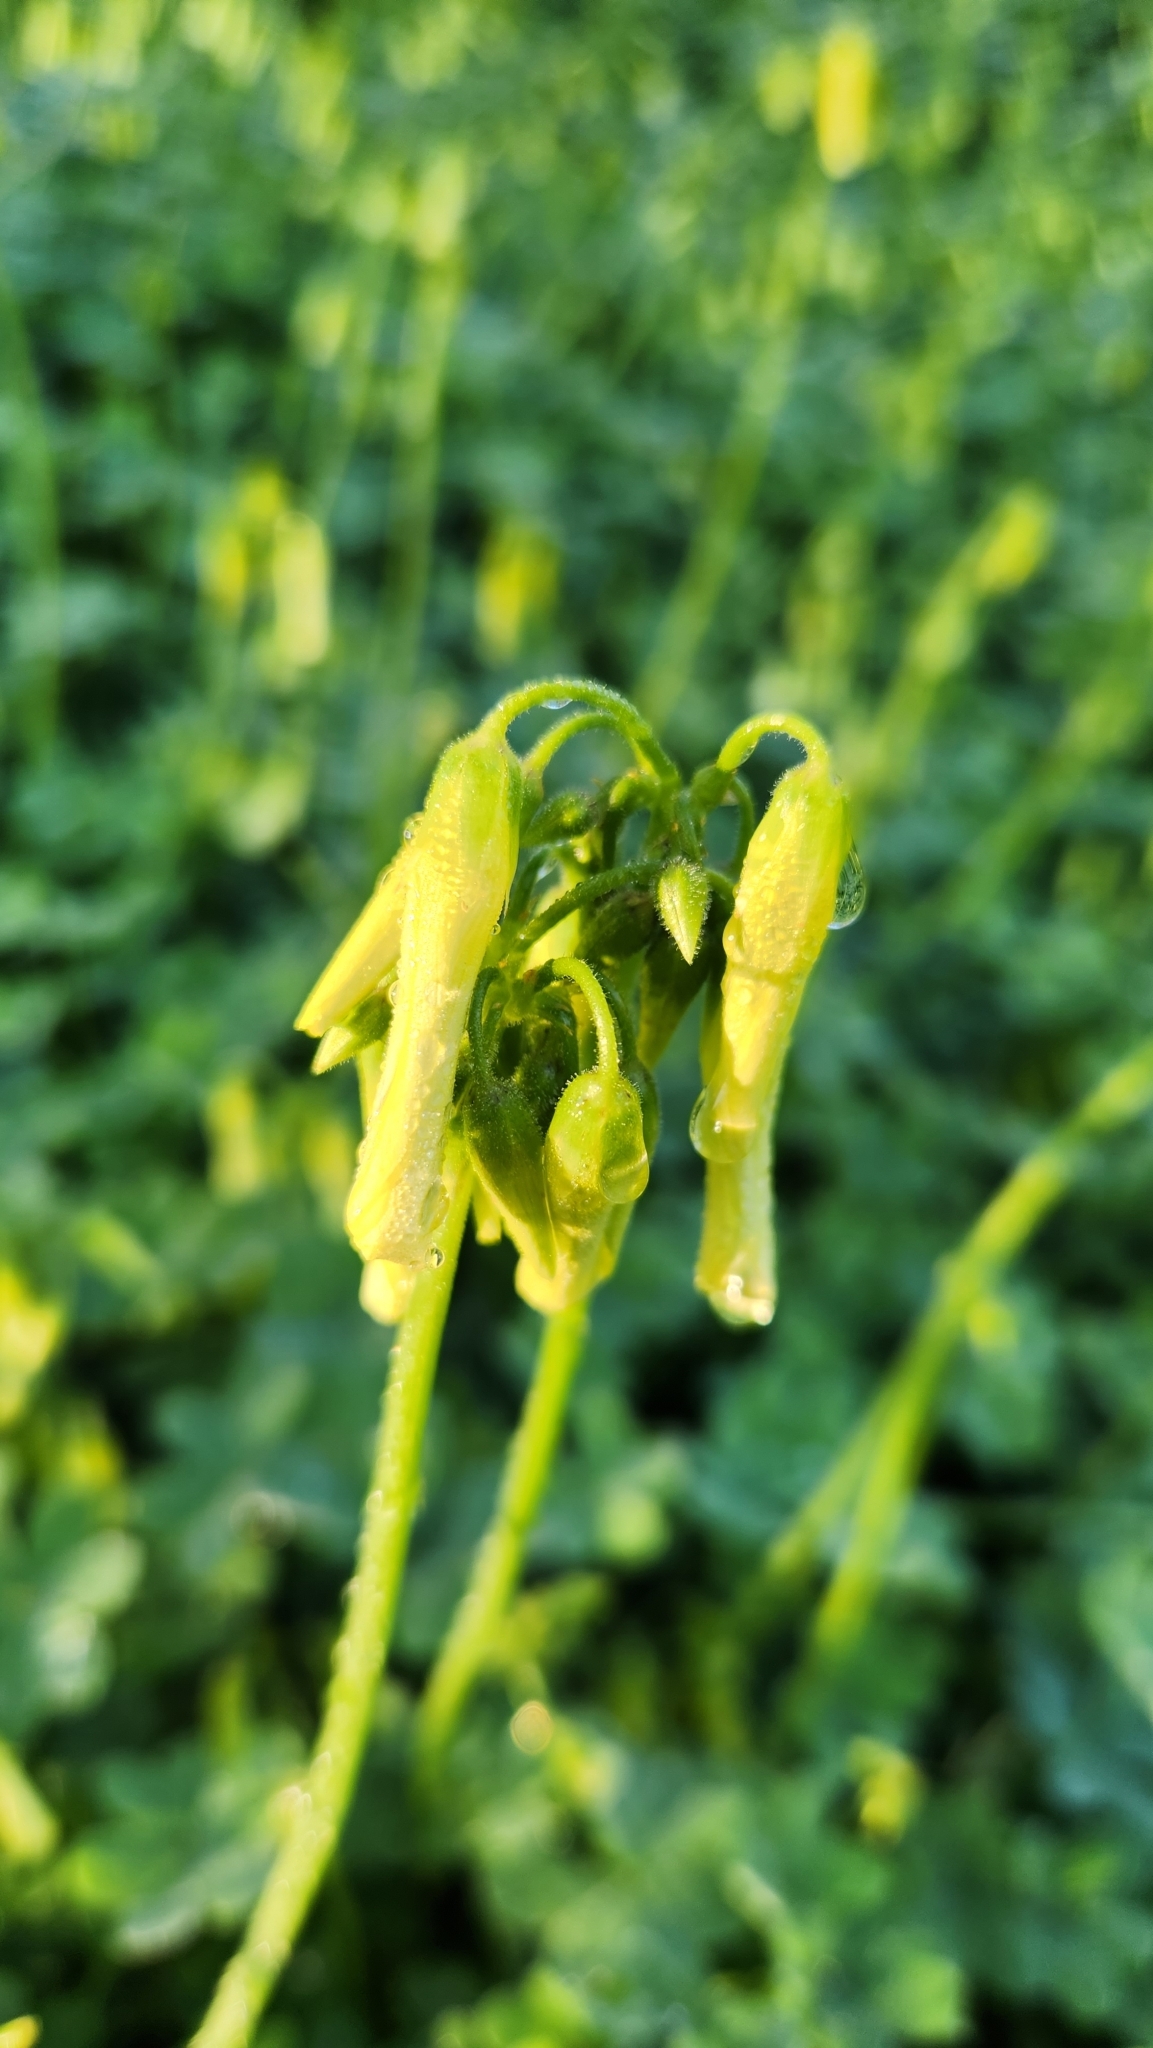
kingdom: Plantae
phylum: Tracheophyta
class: Magnoliopsida
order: Oxalidales
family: Oxalidaceae
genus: Oxalis
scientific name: Oxalis pes-caprae
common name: Bermuda-buttercup
